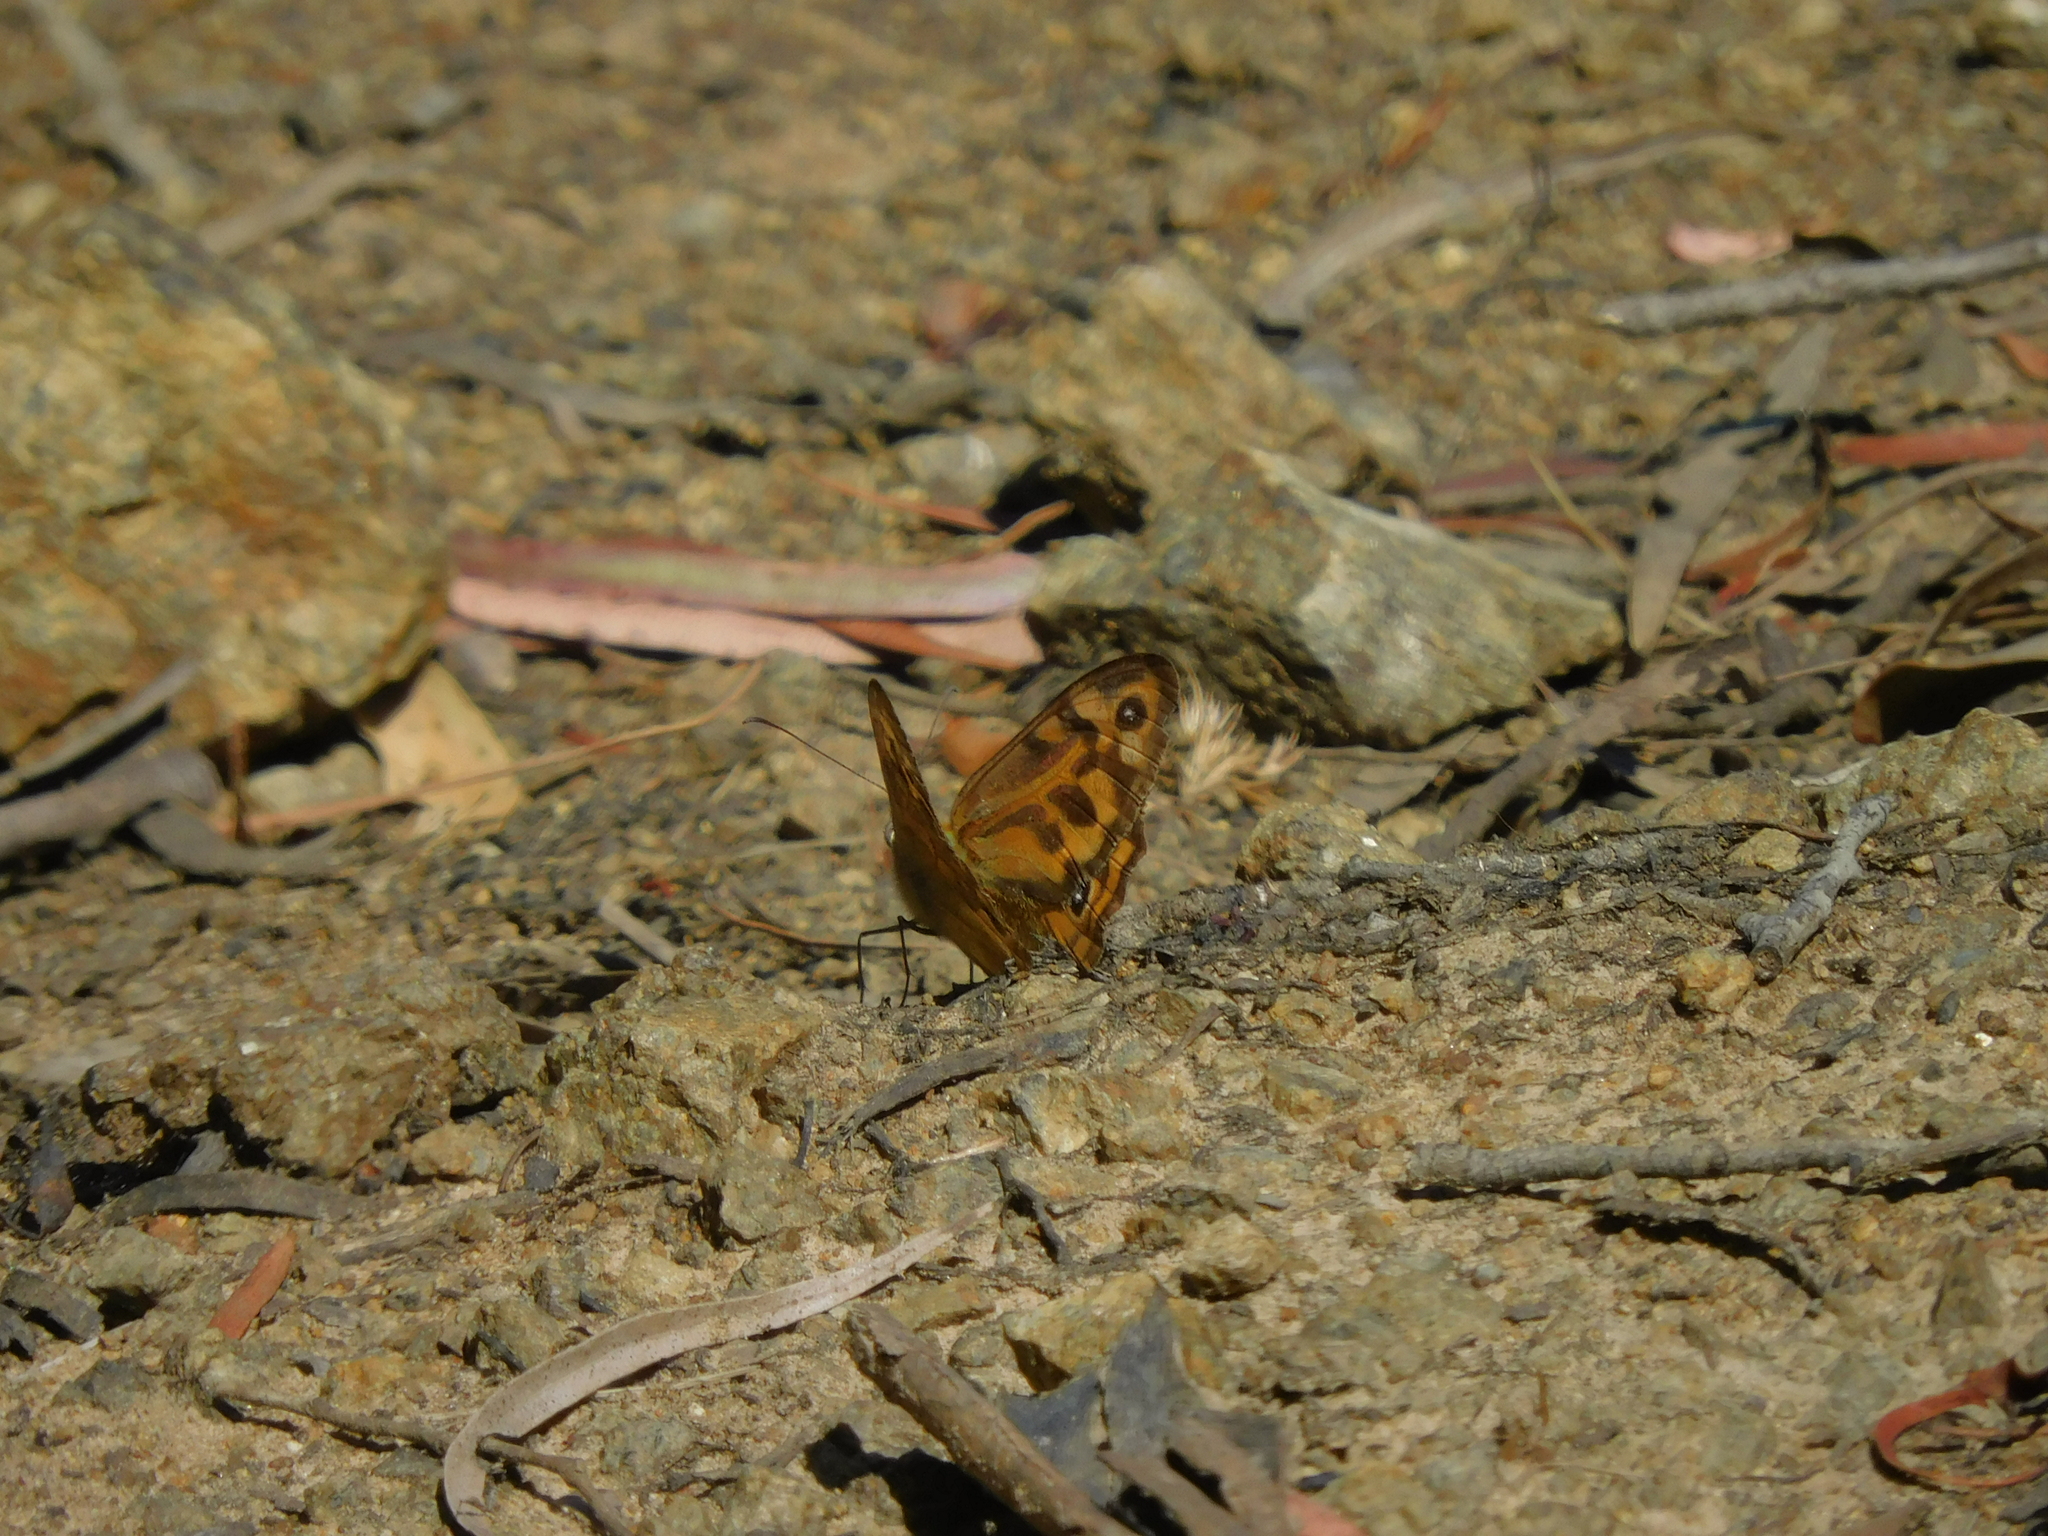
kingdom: Animalia
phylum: Arthropoda
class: Insecta
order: Lepidoptera
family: Nymphalidae
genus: Heteronympha
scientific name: Heteronympha merope
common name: Common brown
